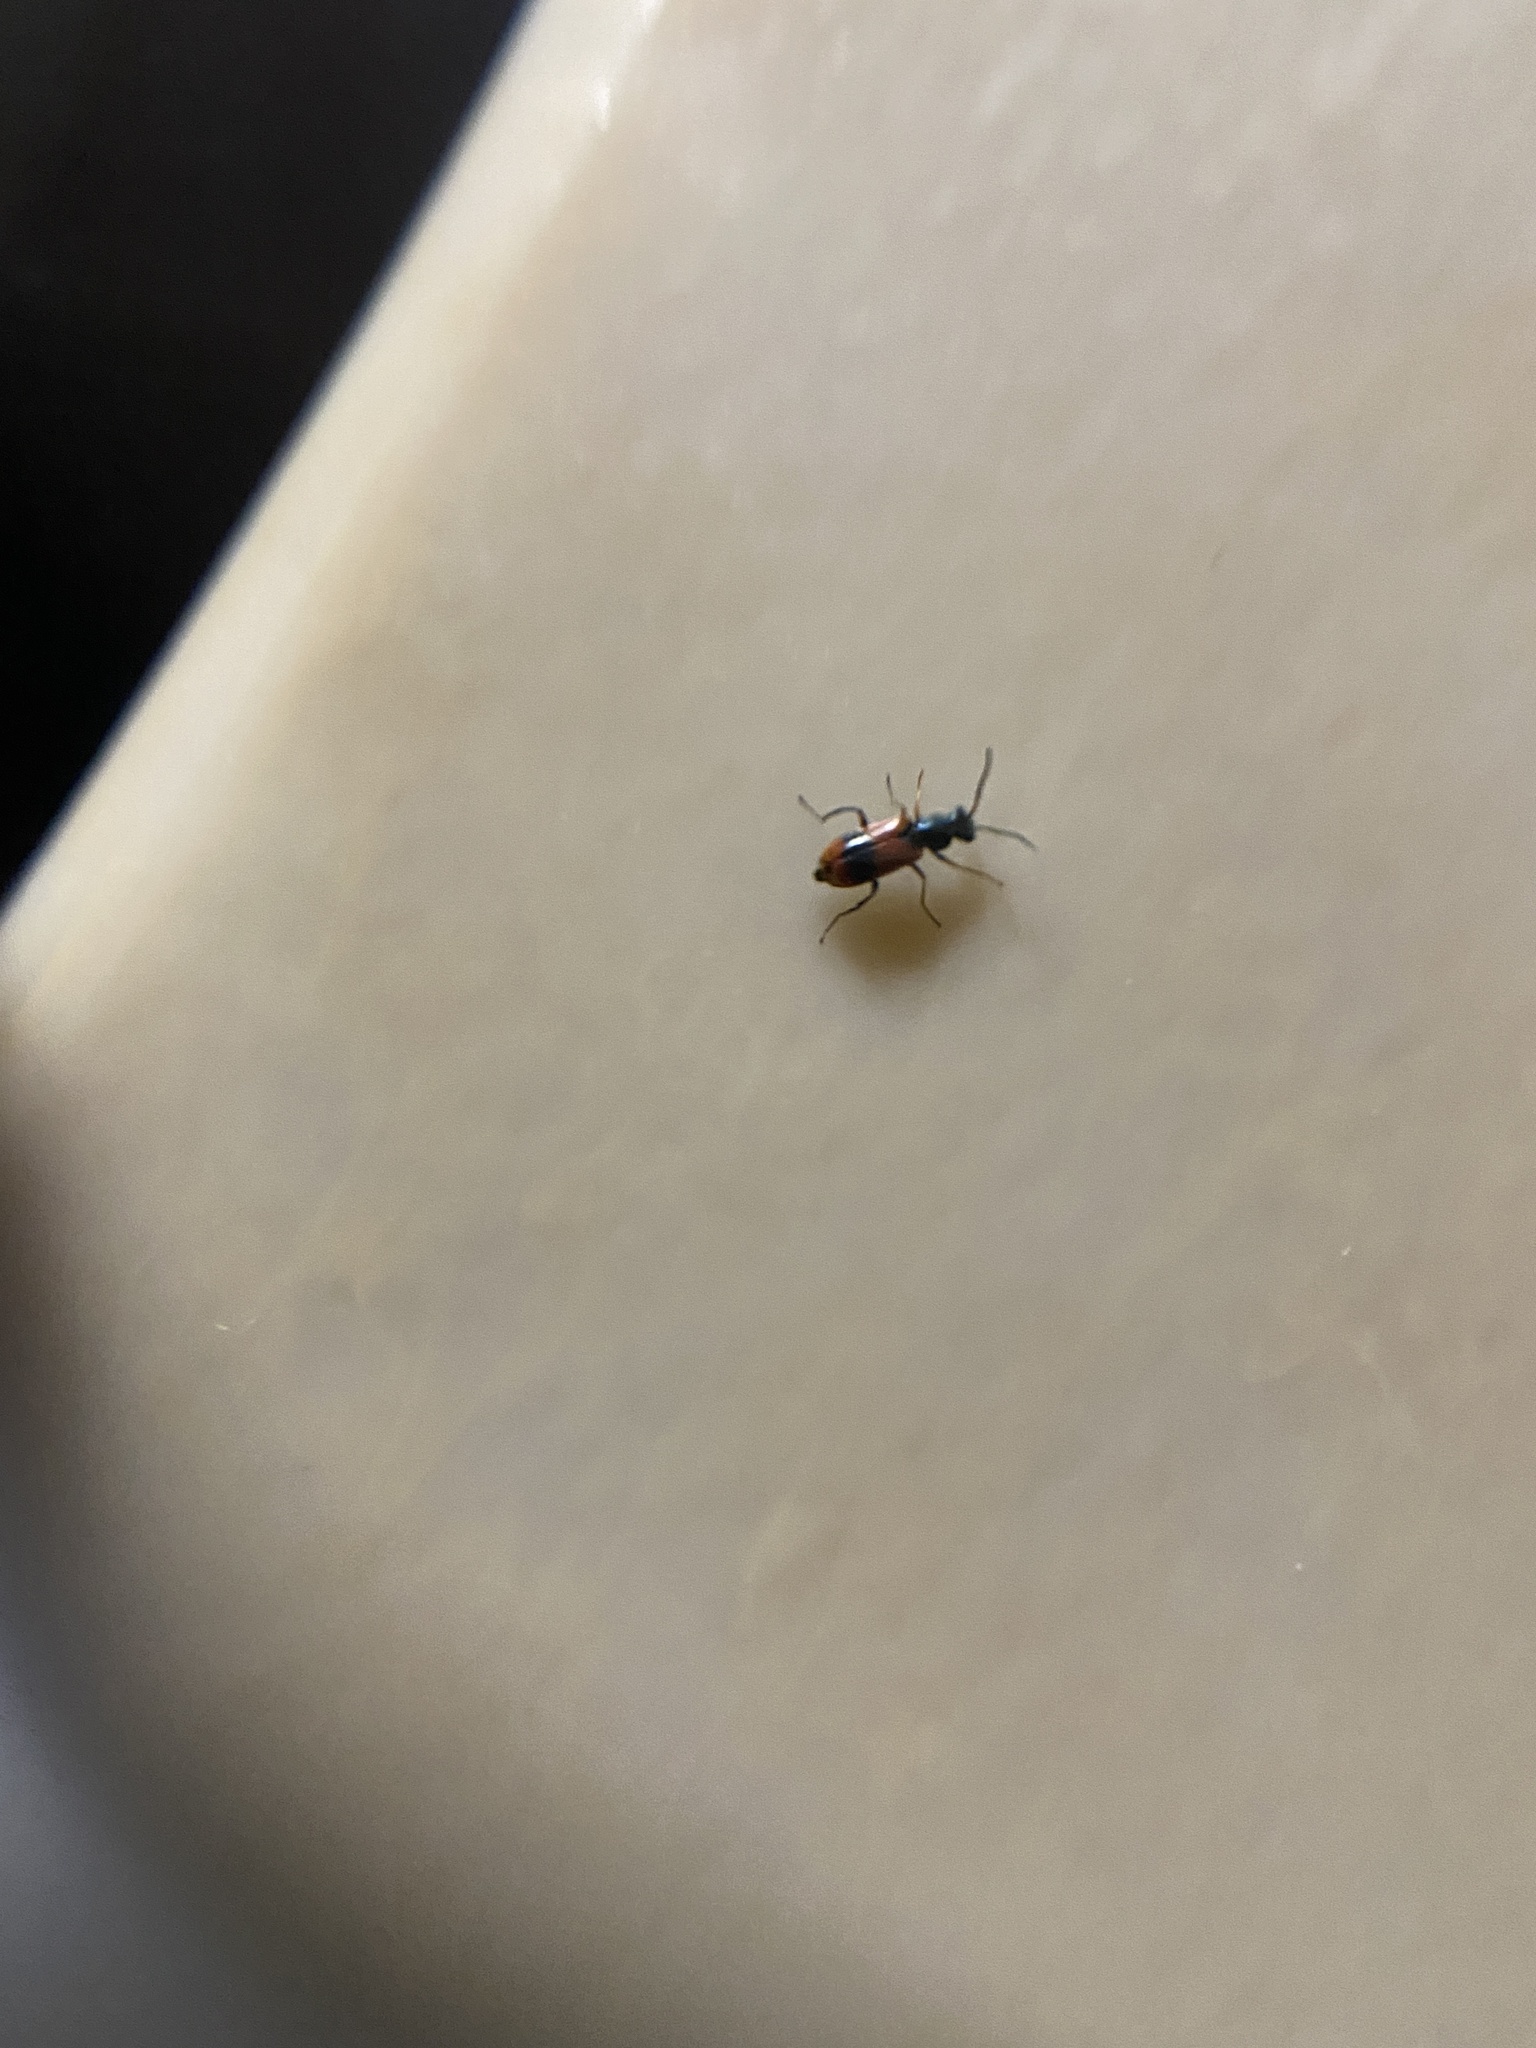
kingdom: Animalia
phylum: Arthropoda
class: Insecta
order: Coleoptera
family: Melyridae
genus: Anthocomus
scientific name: Anthocomus equestris
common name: Black-banded soft-winged flower beetle
